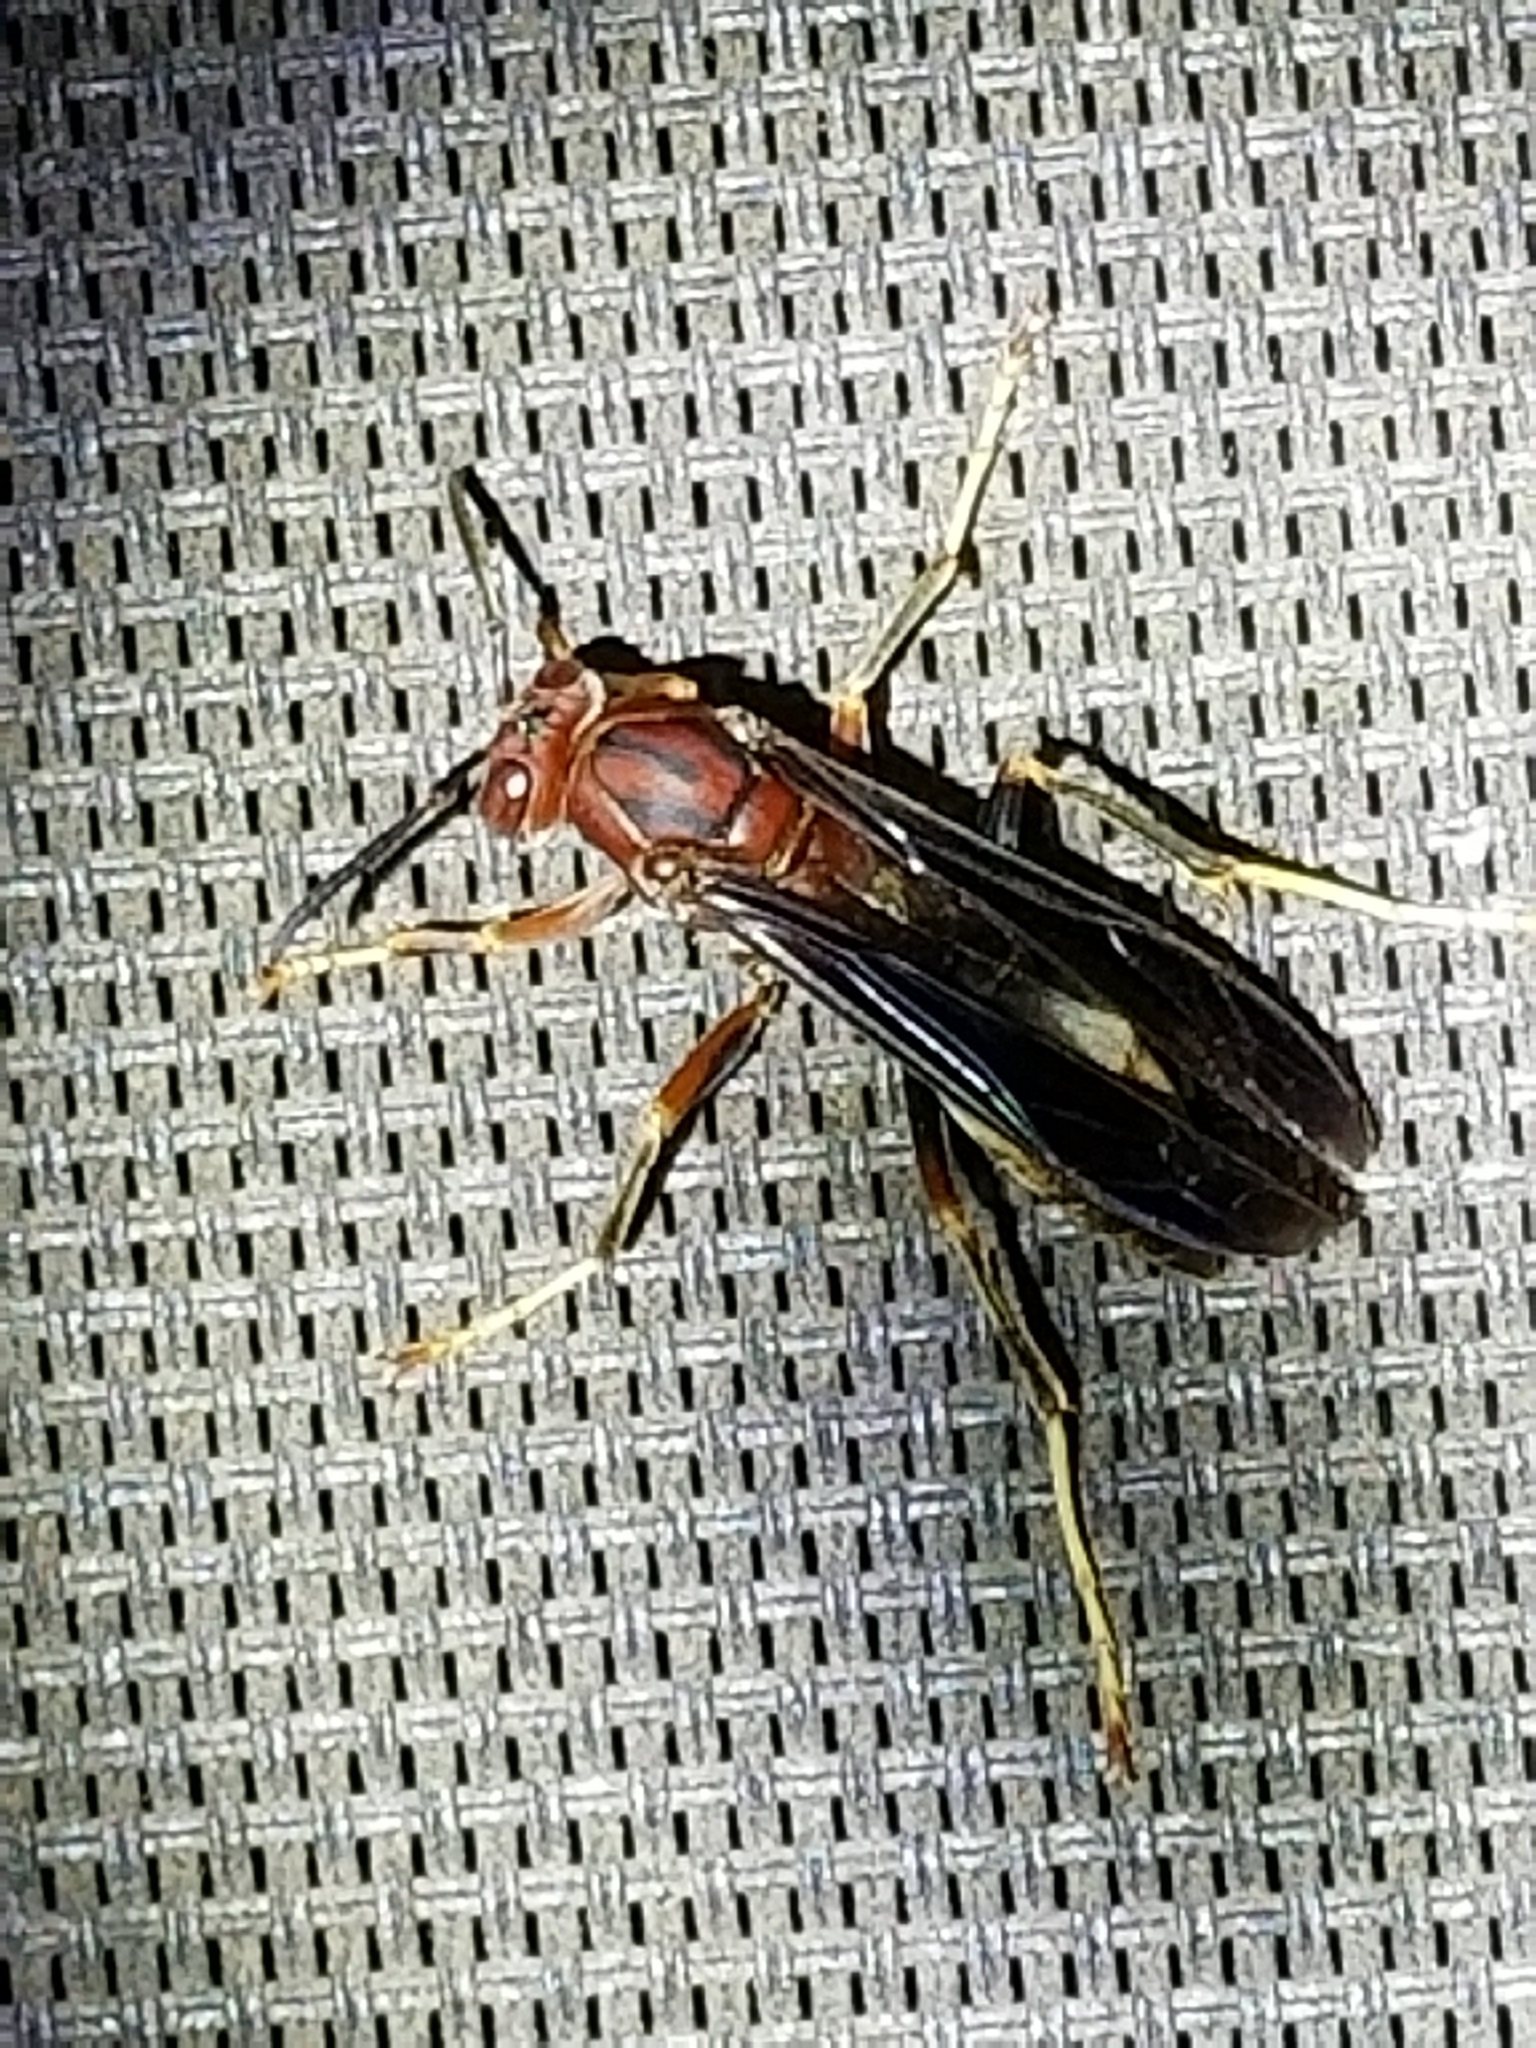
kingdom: Animalia
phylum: Arthropoda
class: Insecta
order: Hymenoptera
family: Eumenidae
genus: Polistes
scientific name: Polistes metricus
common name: Metric paper wasp
